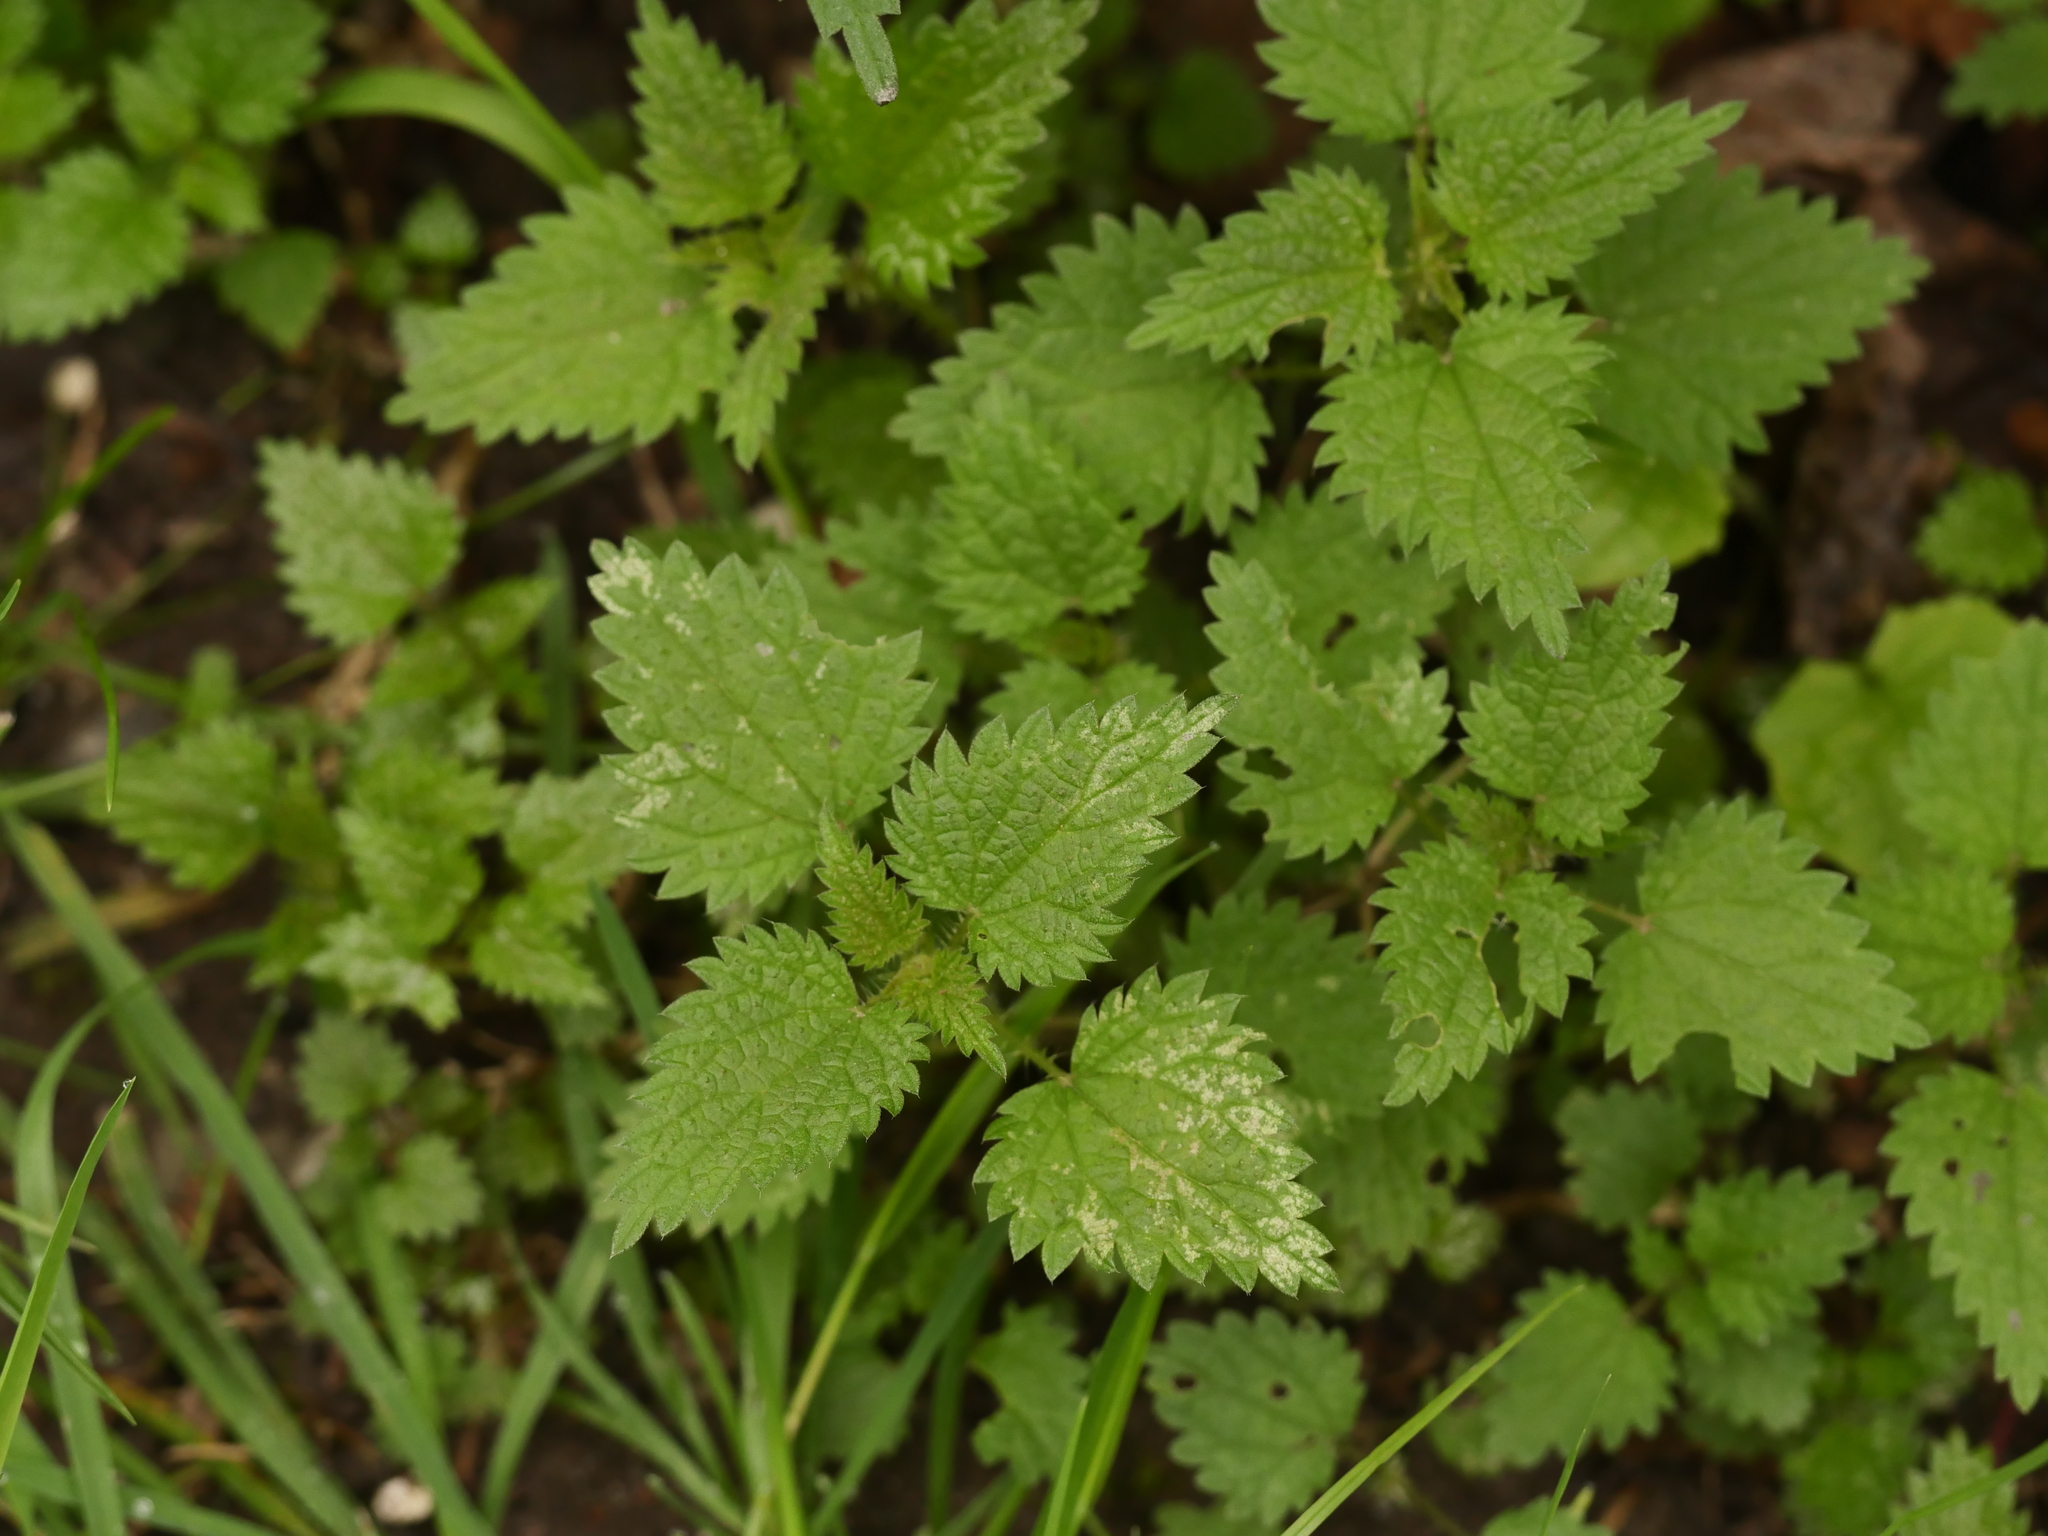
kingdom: Plantae
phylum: Tracheophyta
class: Magnoliopsida
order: Rosales
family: Urticaceae
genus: Urtica
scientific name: Urtica dioica
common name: Common nettle
